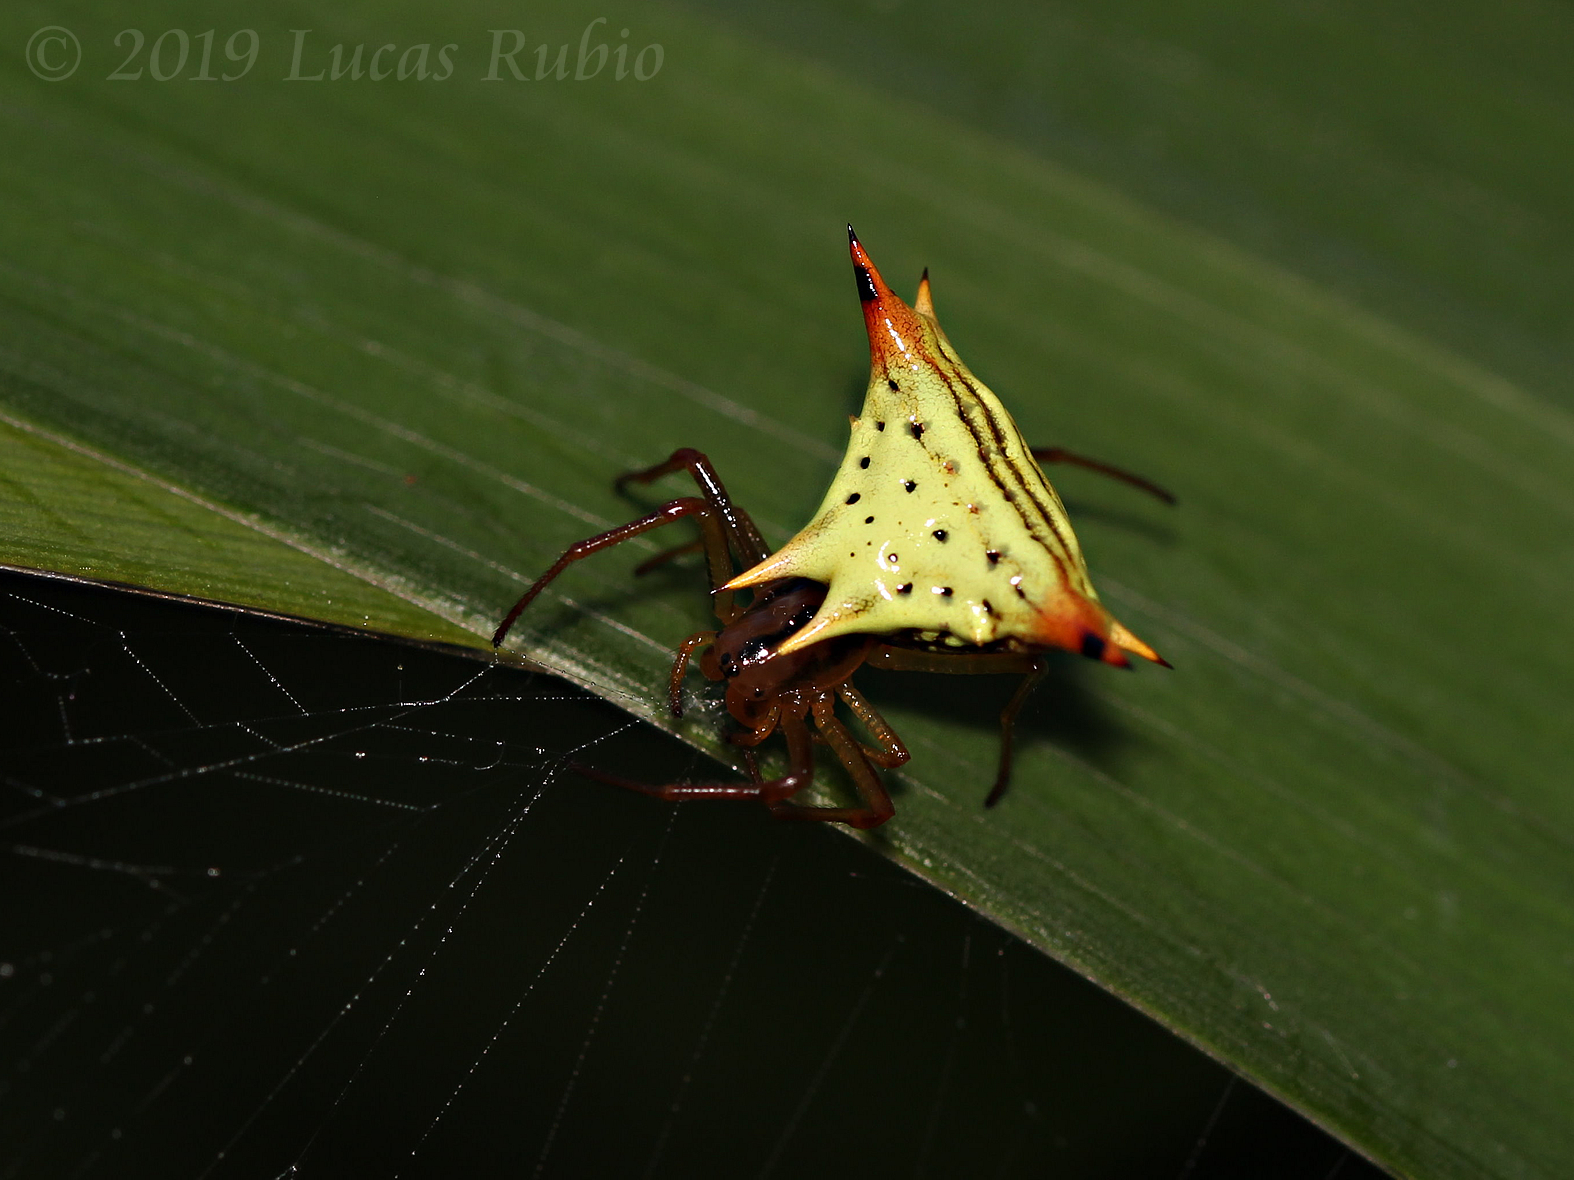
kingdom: Animalia
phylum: Arthropoda
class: Arachnida
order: Araneae
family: Araneidae
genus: Micrathena
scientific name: Micrathena furcata
